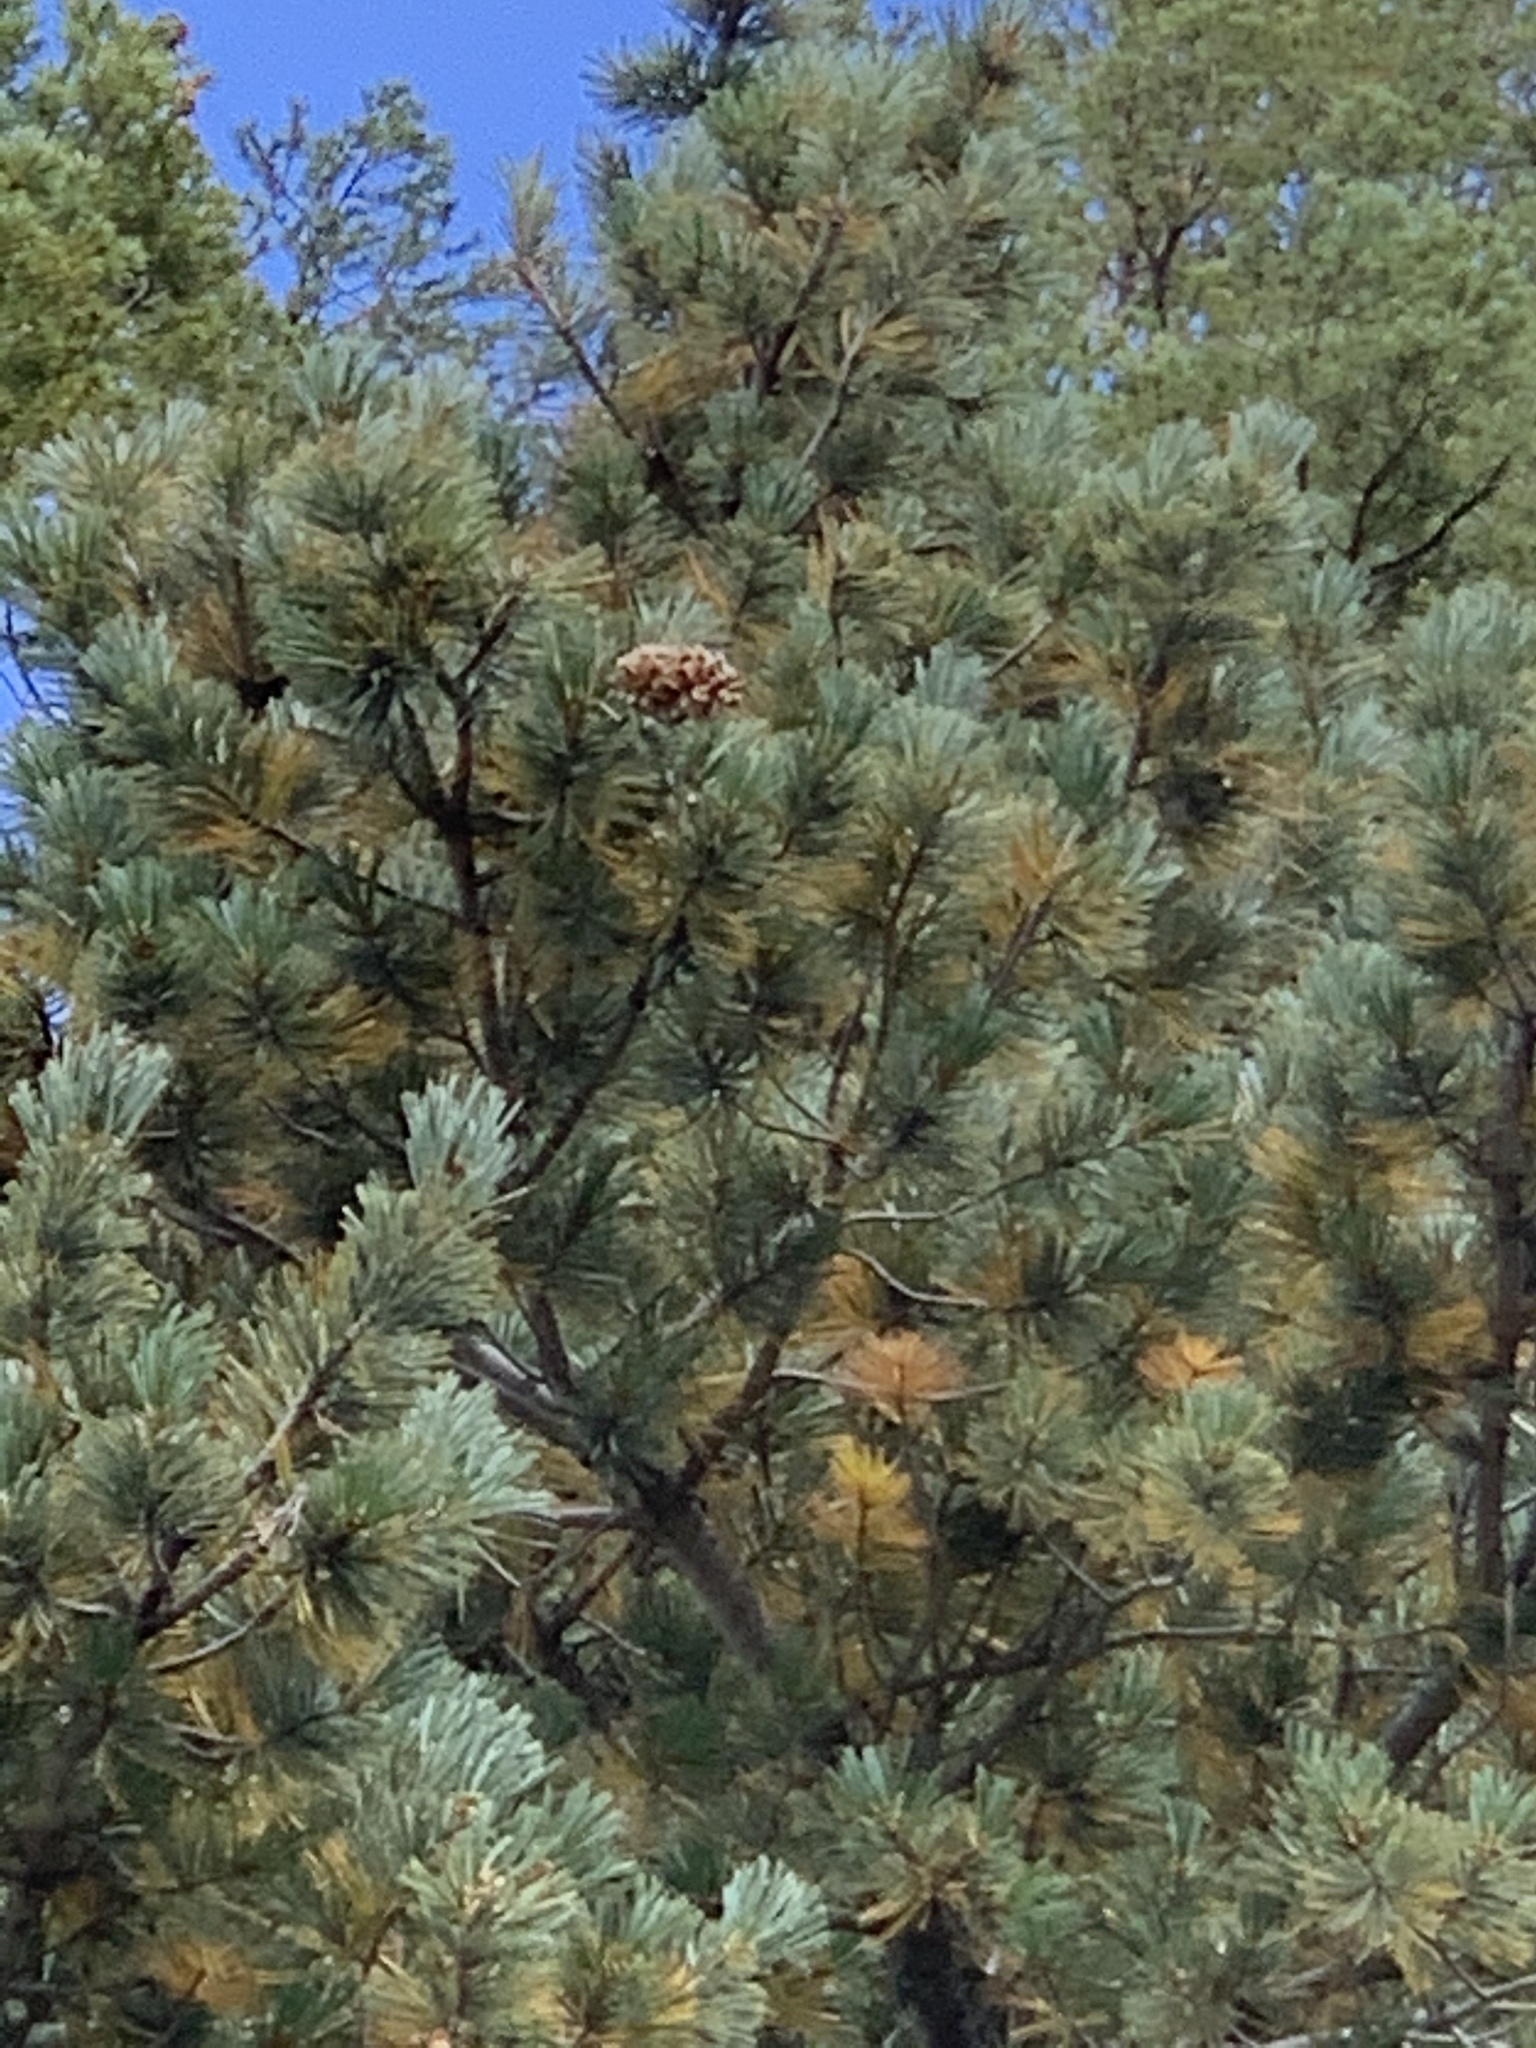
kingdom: Plantae
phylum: Tracheophyta
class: Pinopsida
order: Pinales
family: Pinaceae
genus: Pinus
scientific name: Pinus strobiformis
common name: Southwestern white pine
